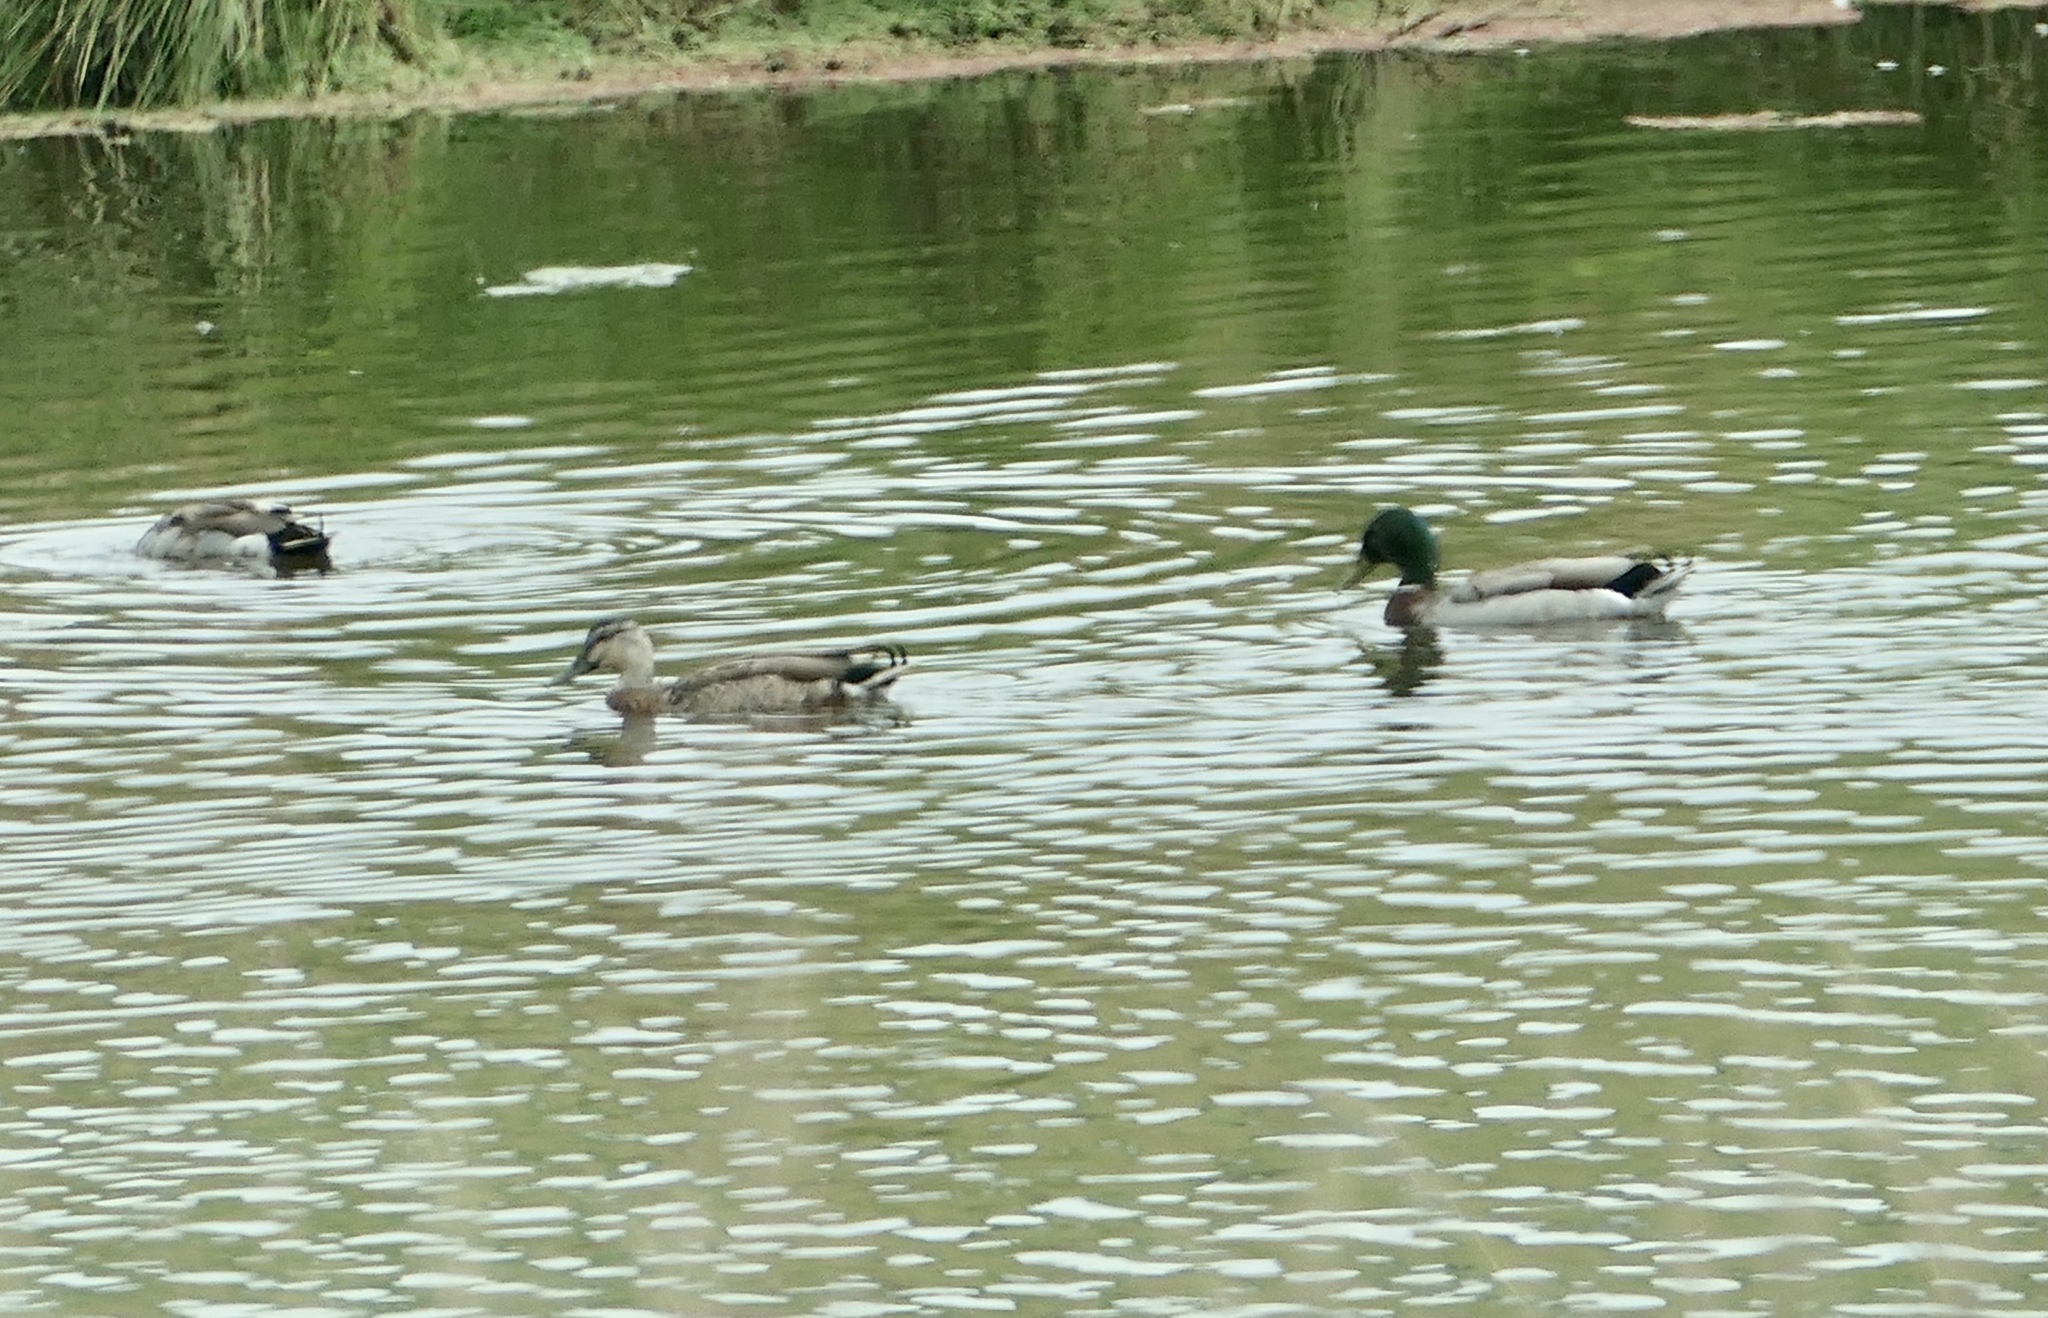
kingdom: Animalia
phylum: Chordata
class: Aves
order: Anseriformes
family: Anatidae
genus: Anas
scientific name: Anas platyrhynchos
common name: Mallard
